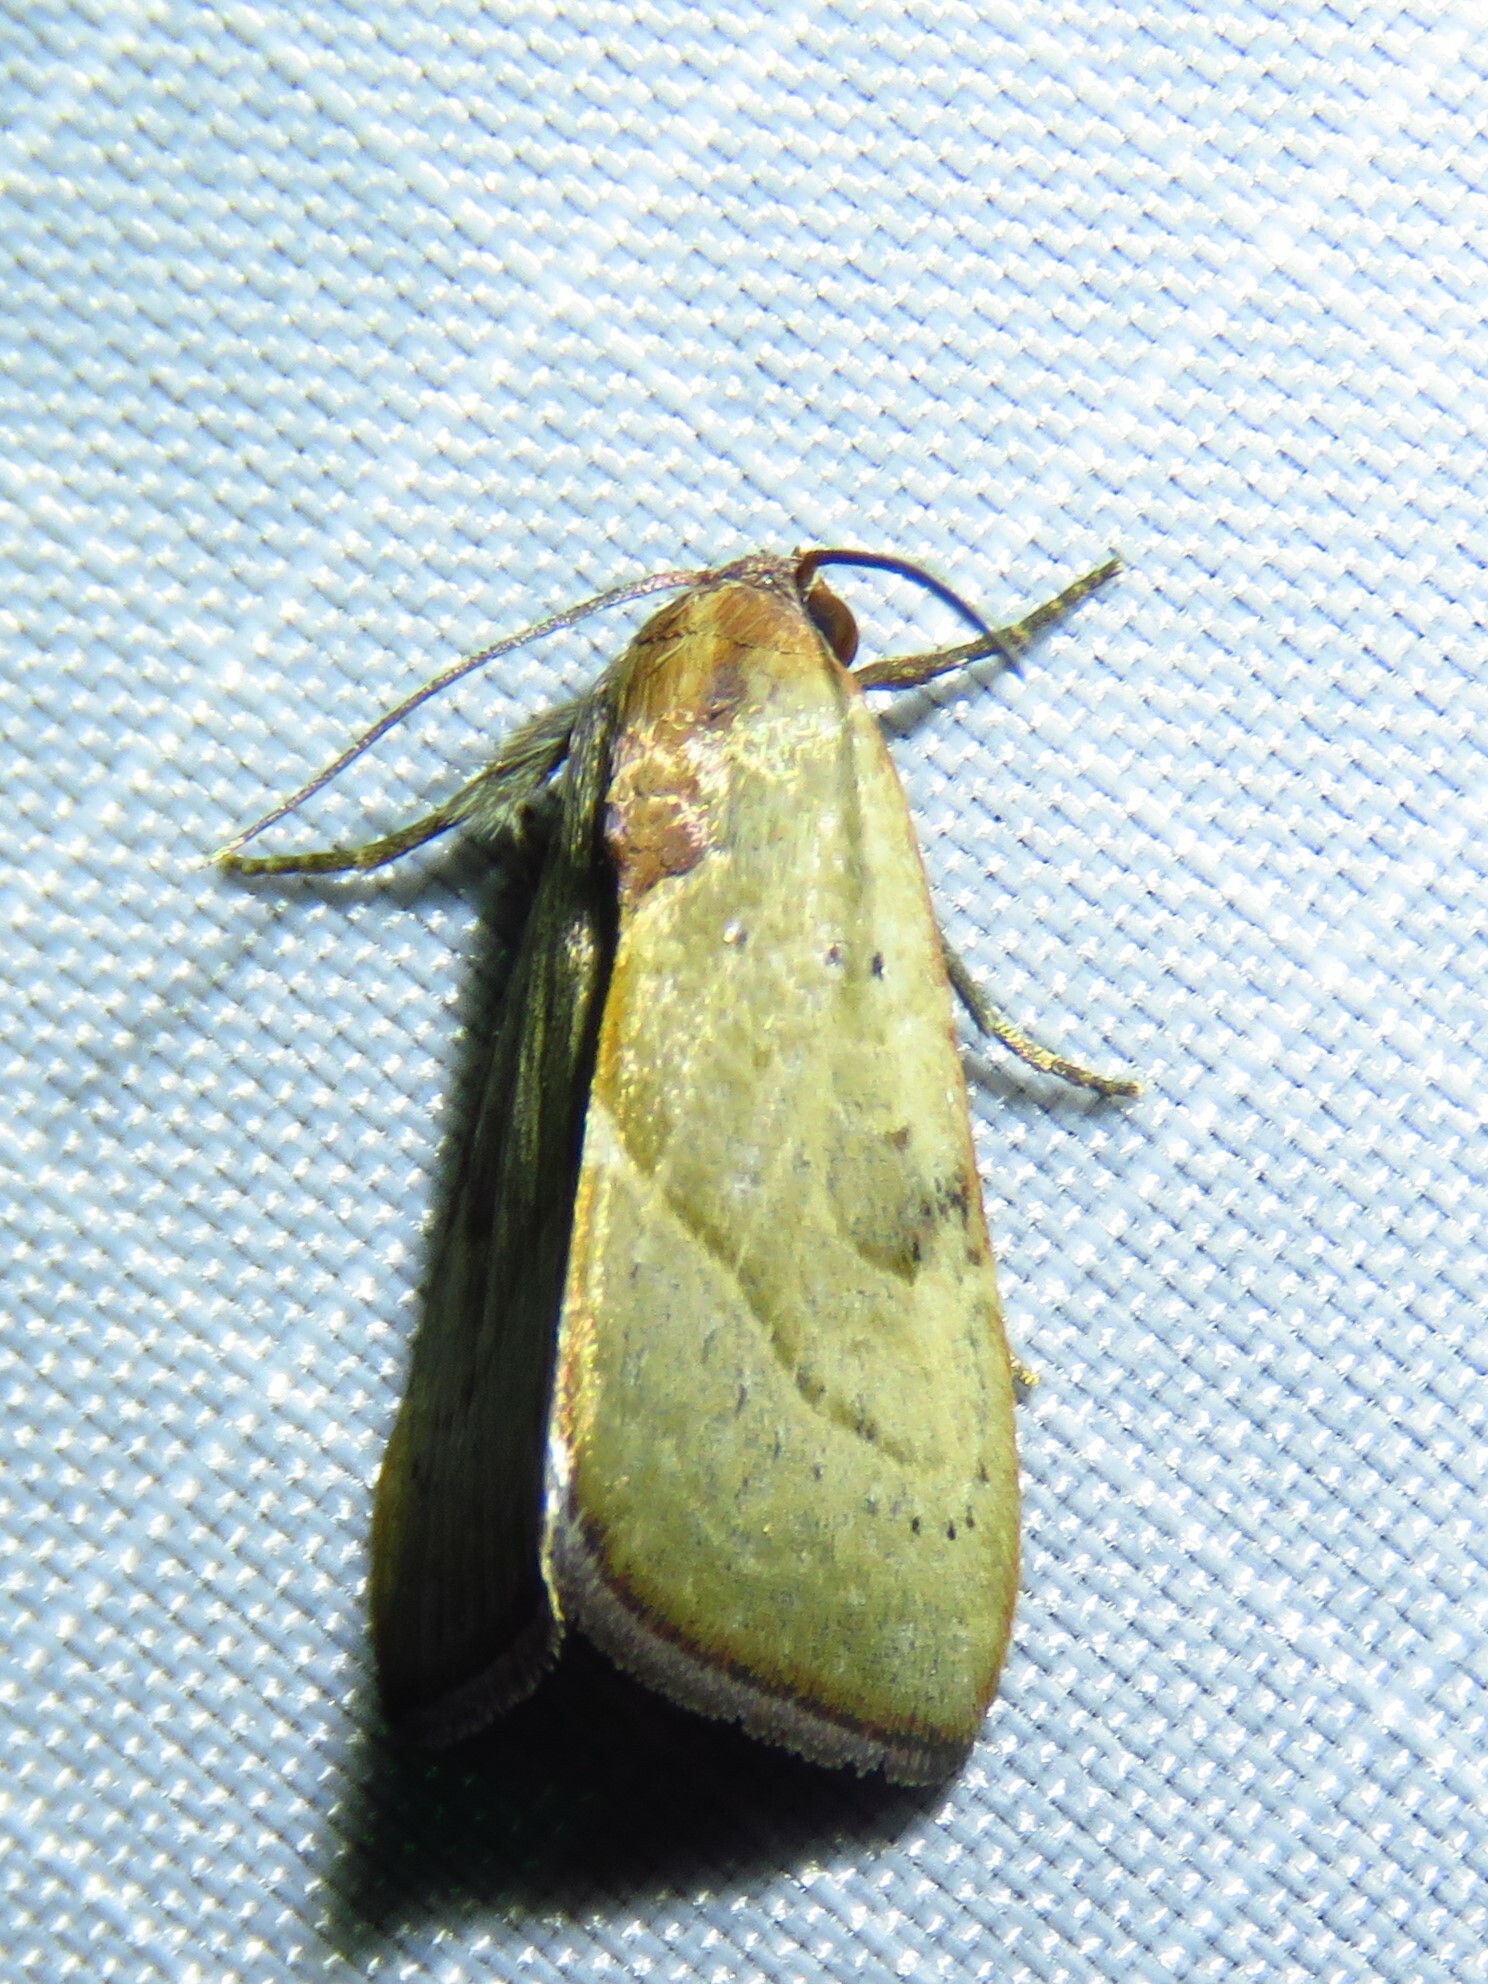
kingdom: Animalia
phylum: Arthropoda
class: Insecta
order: Lepidoptera
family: Noctuidae
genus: Galgula
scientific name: Galgula partita
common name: Wedgeling
